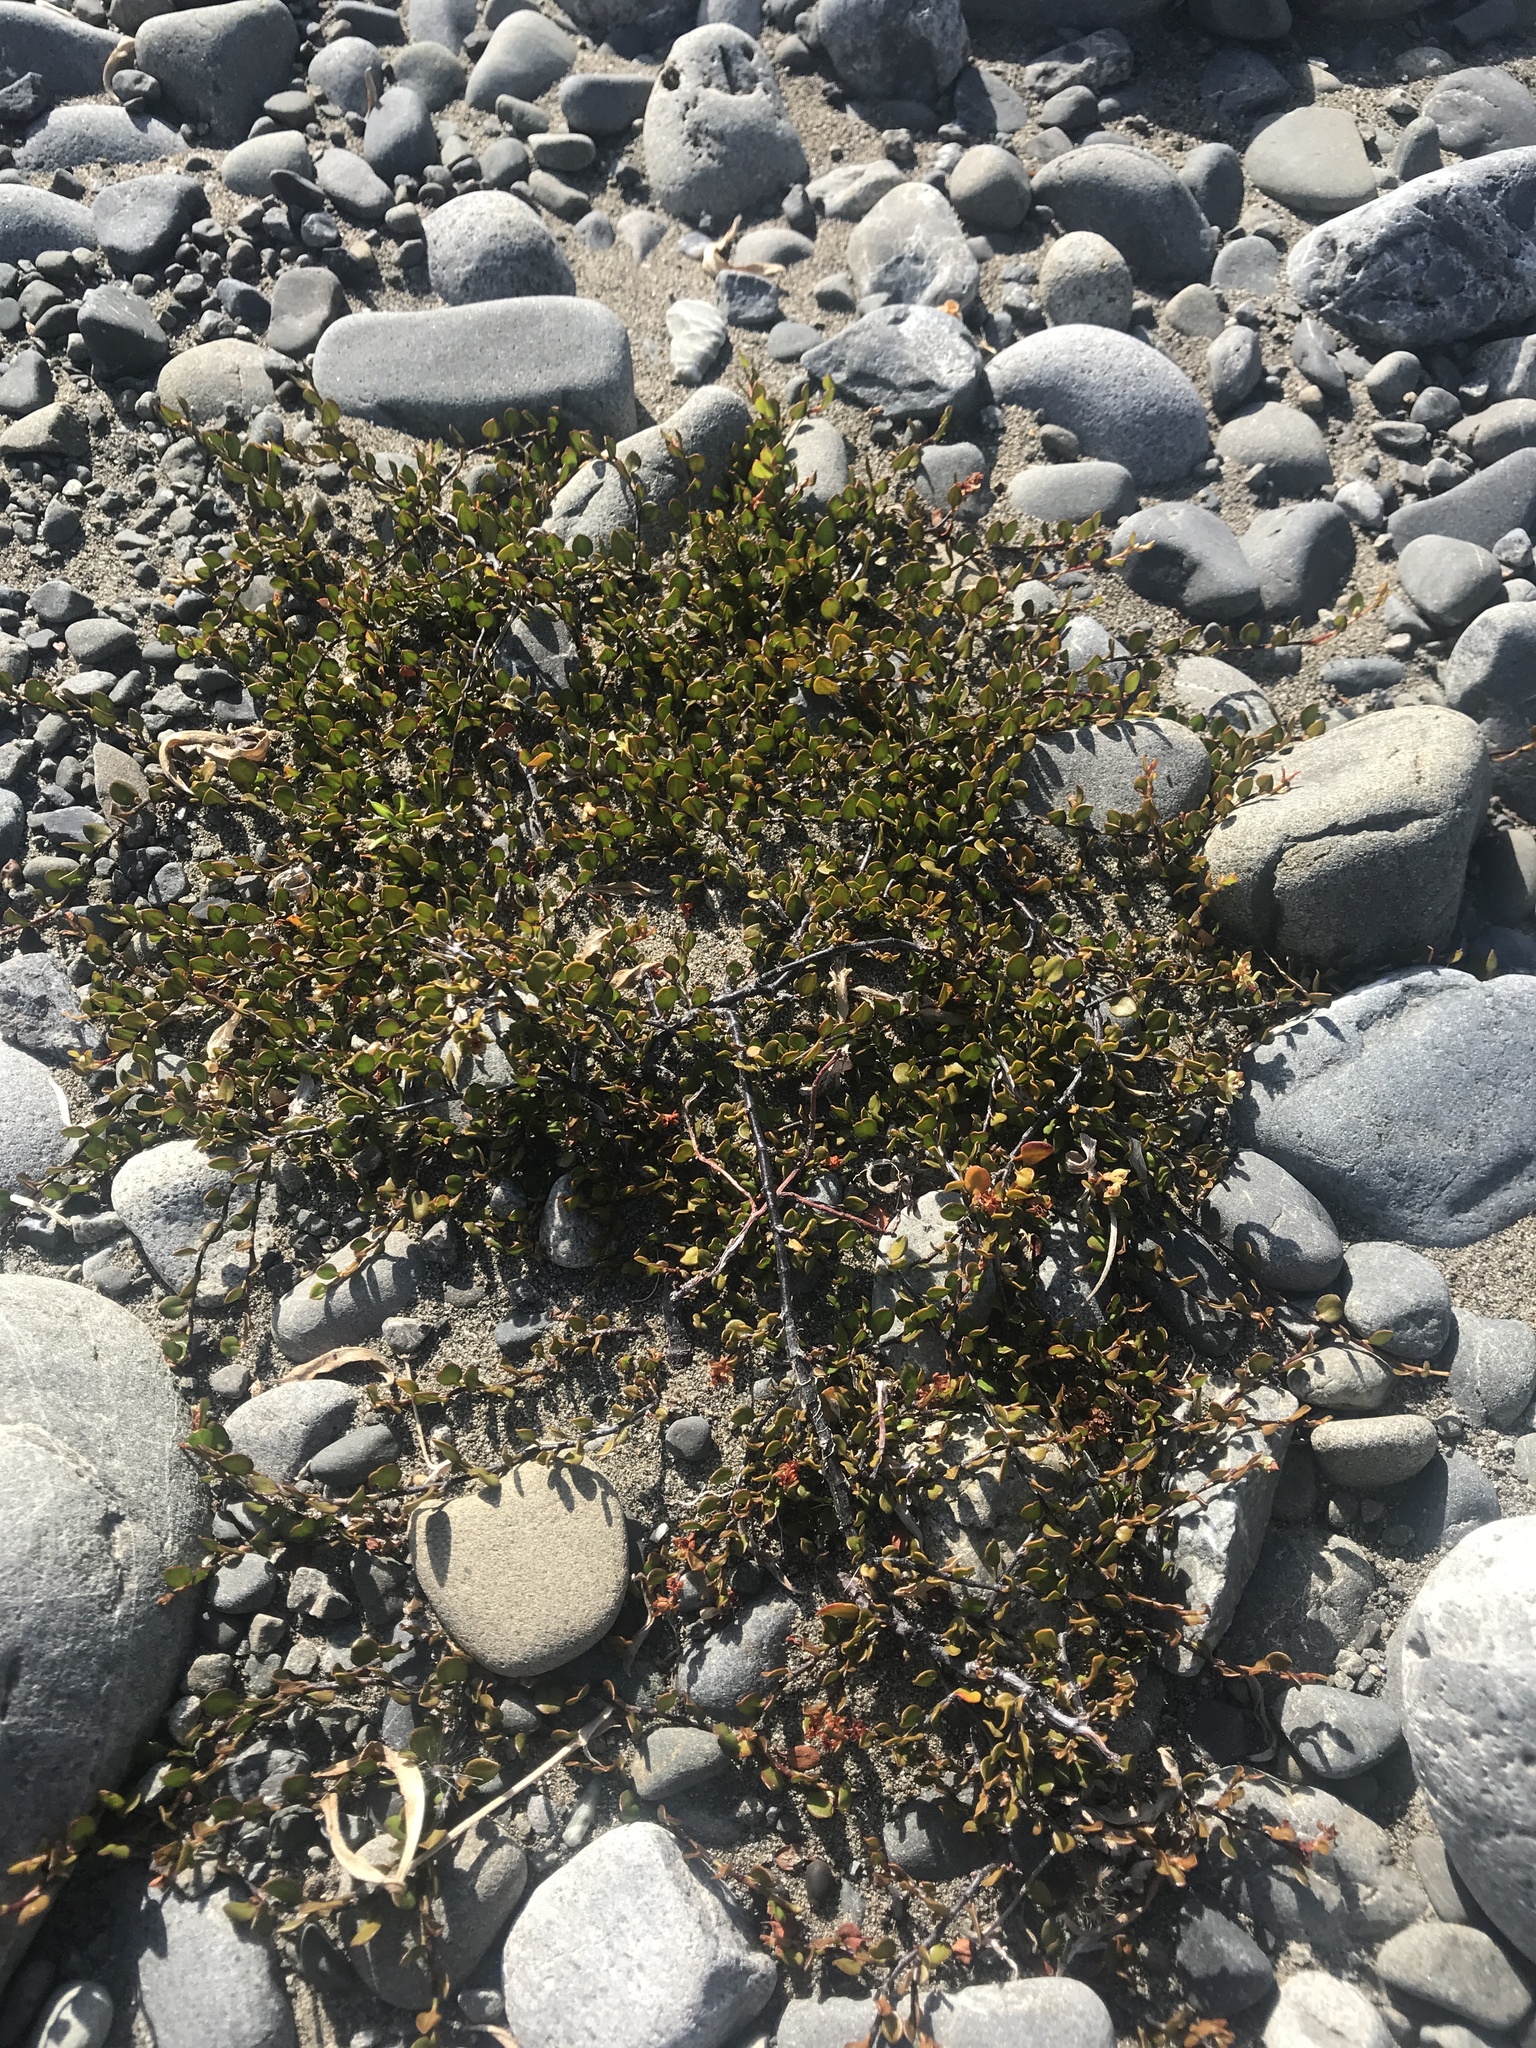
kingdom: Plantae
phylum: Tracheophyta
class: Magnoliopsida
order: Caryophyllales
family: Polygonaceae
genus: Muehlenbeckia
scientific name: Muehlenbeckia axillaris
